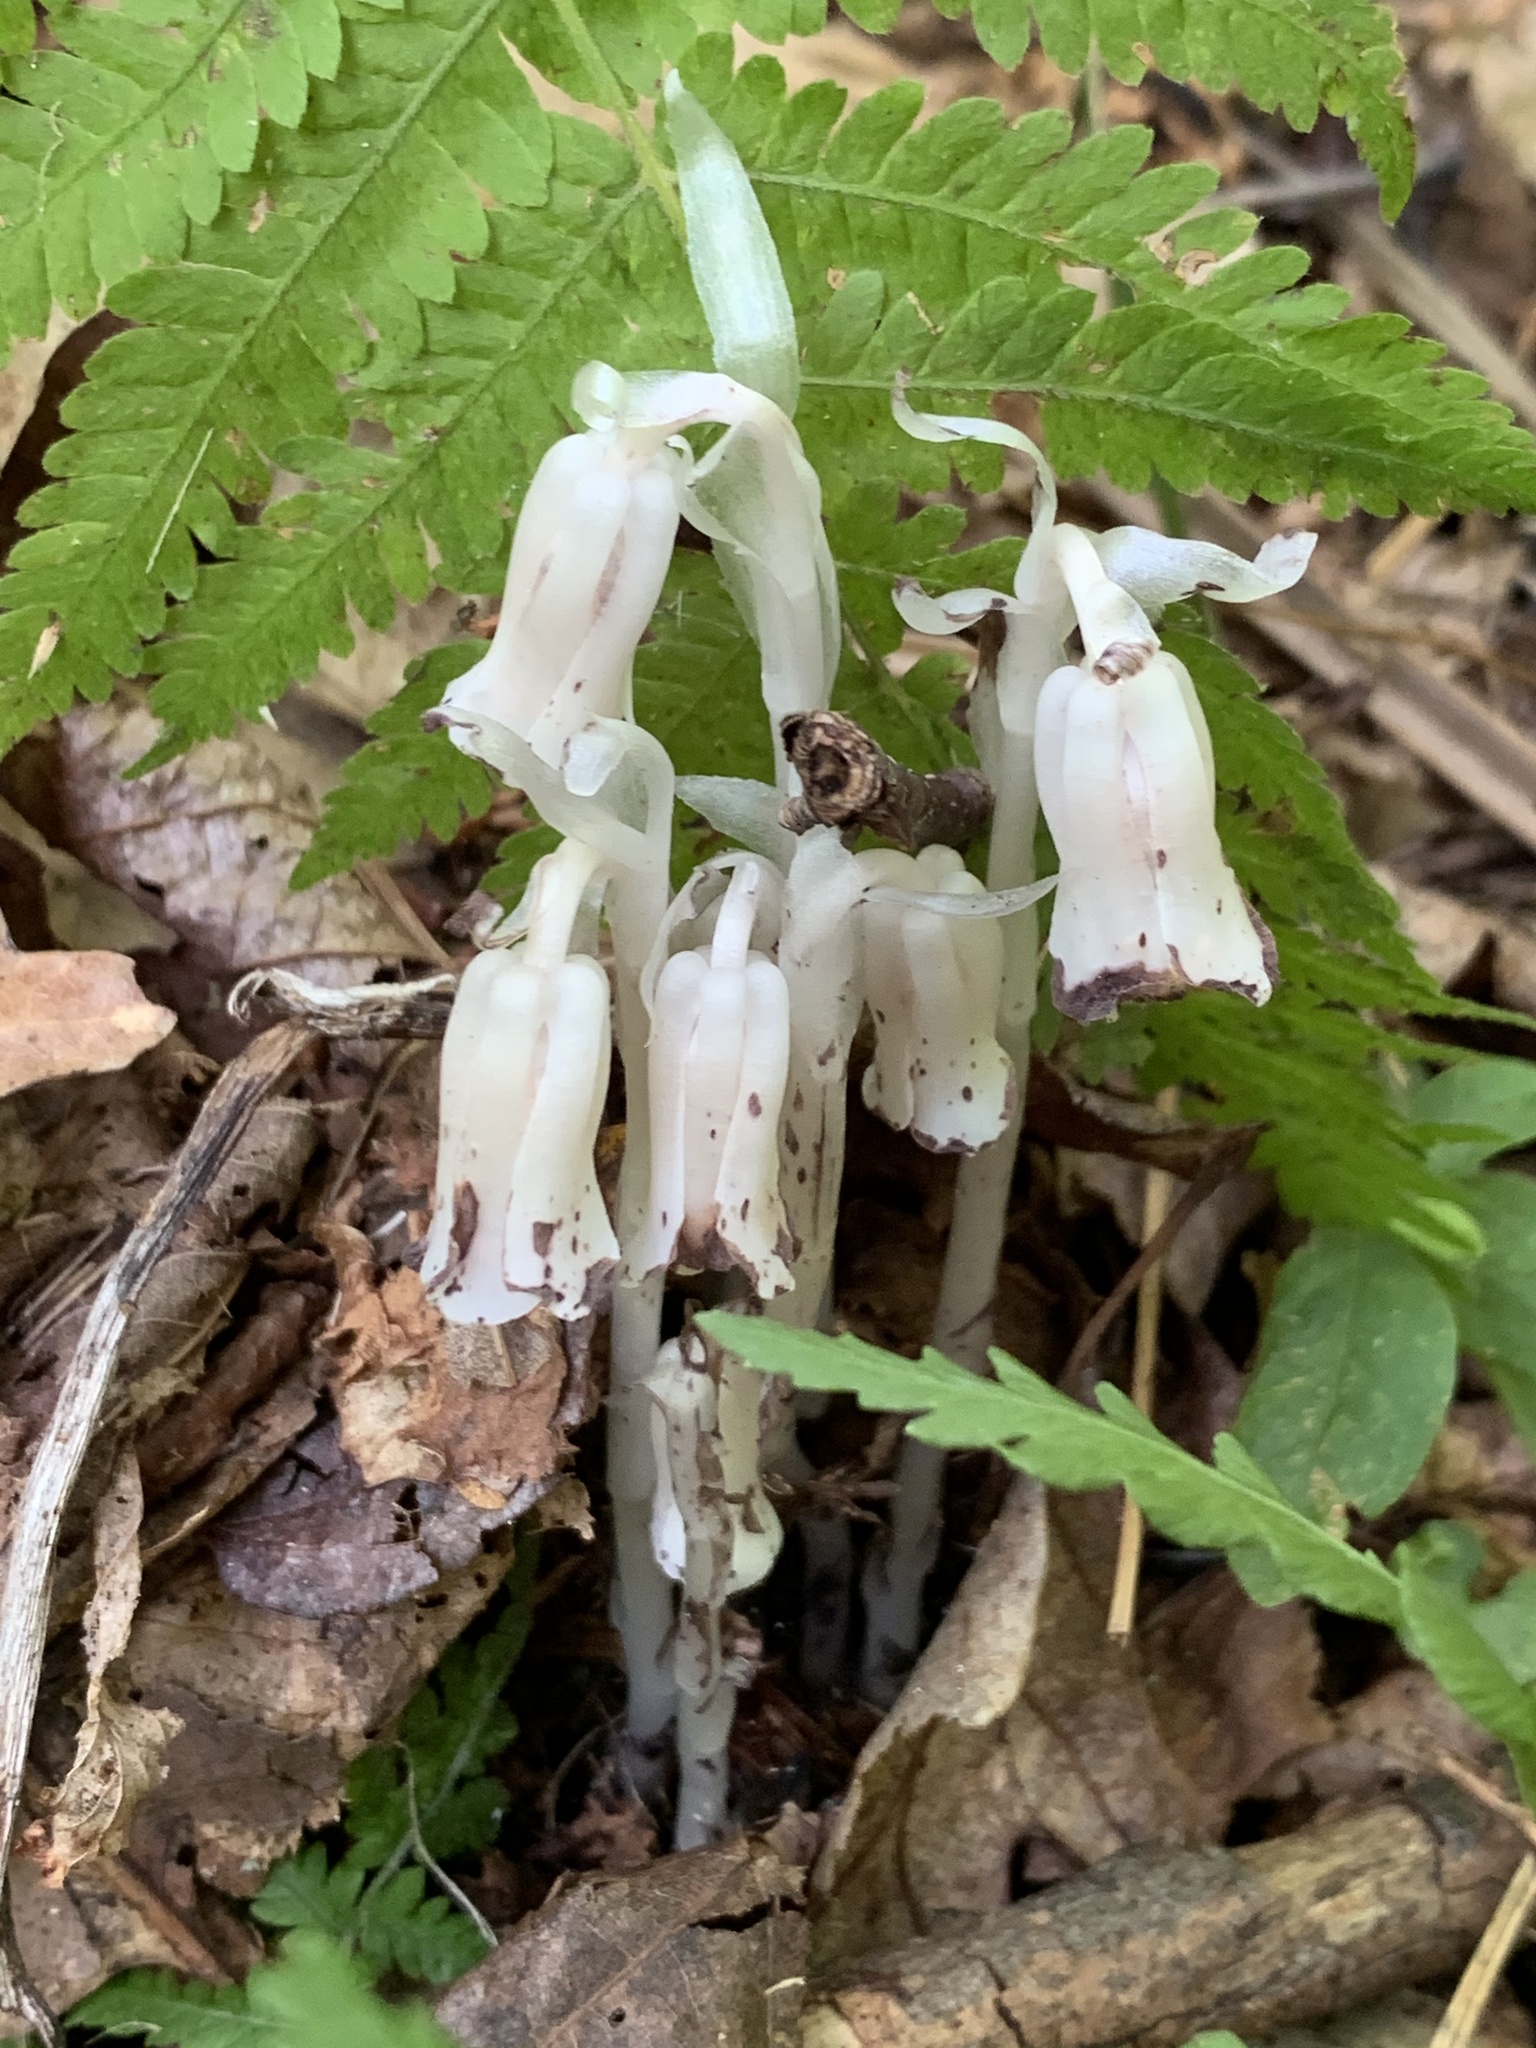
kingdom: Plantae
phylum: Tracheophyta
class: Magnoliopsida
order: Ericales
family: Ericaceae
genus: Monotropa
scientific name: Monotropa uniflora
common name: Convulsion root
